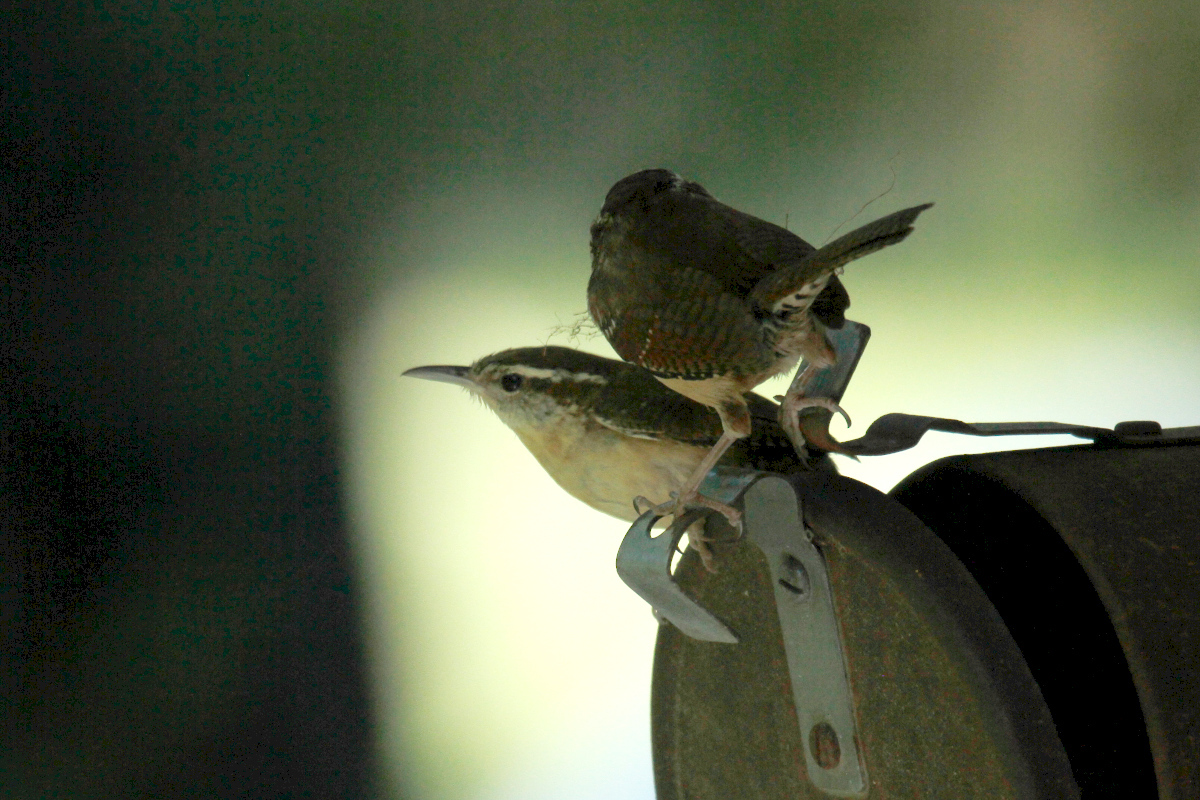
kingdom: Animalia
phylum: Chordata
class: Aves
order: Passeriformes
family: Troglodytidae
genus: Thryothorus
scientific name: Thryothorus ludovicianus
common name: Carolina wren
